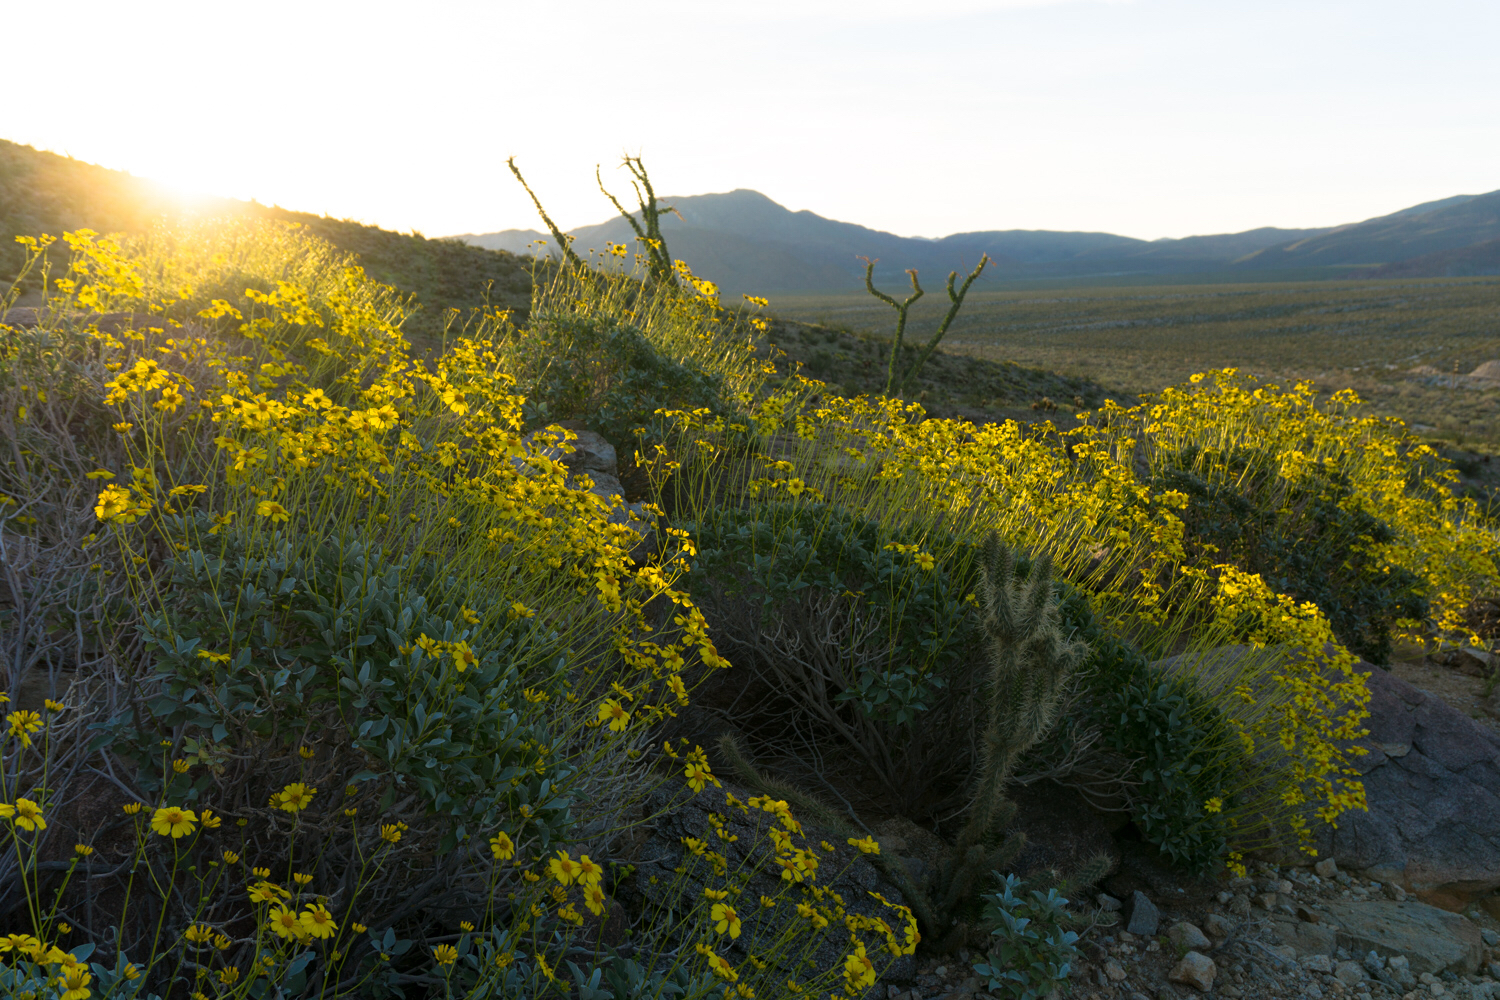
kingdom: Plantae
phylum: Tracheophyta
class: Magnoliopsida
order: Asterales
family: Asteraceae
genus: Encelia
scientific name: Encelia farinosa
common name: Brittlebush
